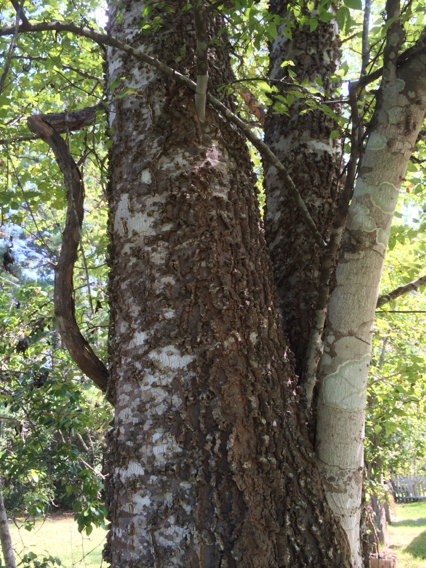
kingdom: Plantae
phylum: Tracheophyta
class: Magnoliopsida
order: Rosales
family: Cannabaceae
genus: Celtis
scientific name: Celtis laevigata
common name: Sugarberry
